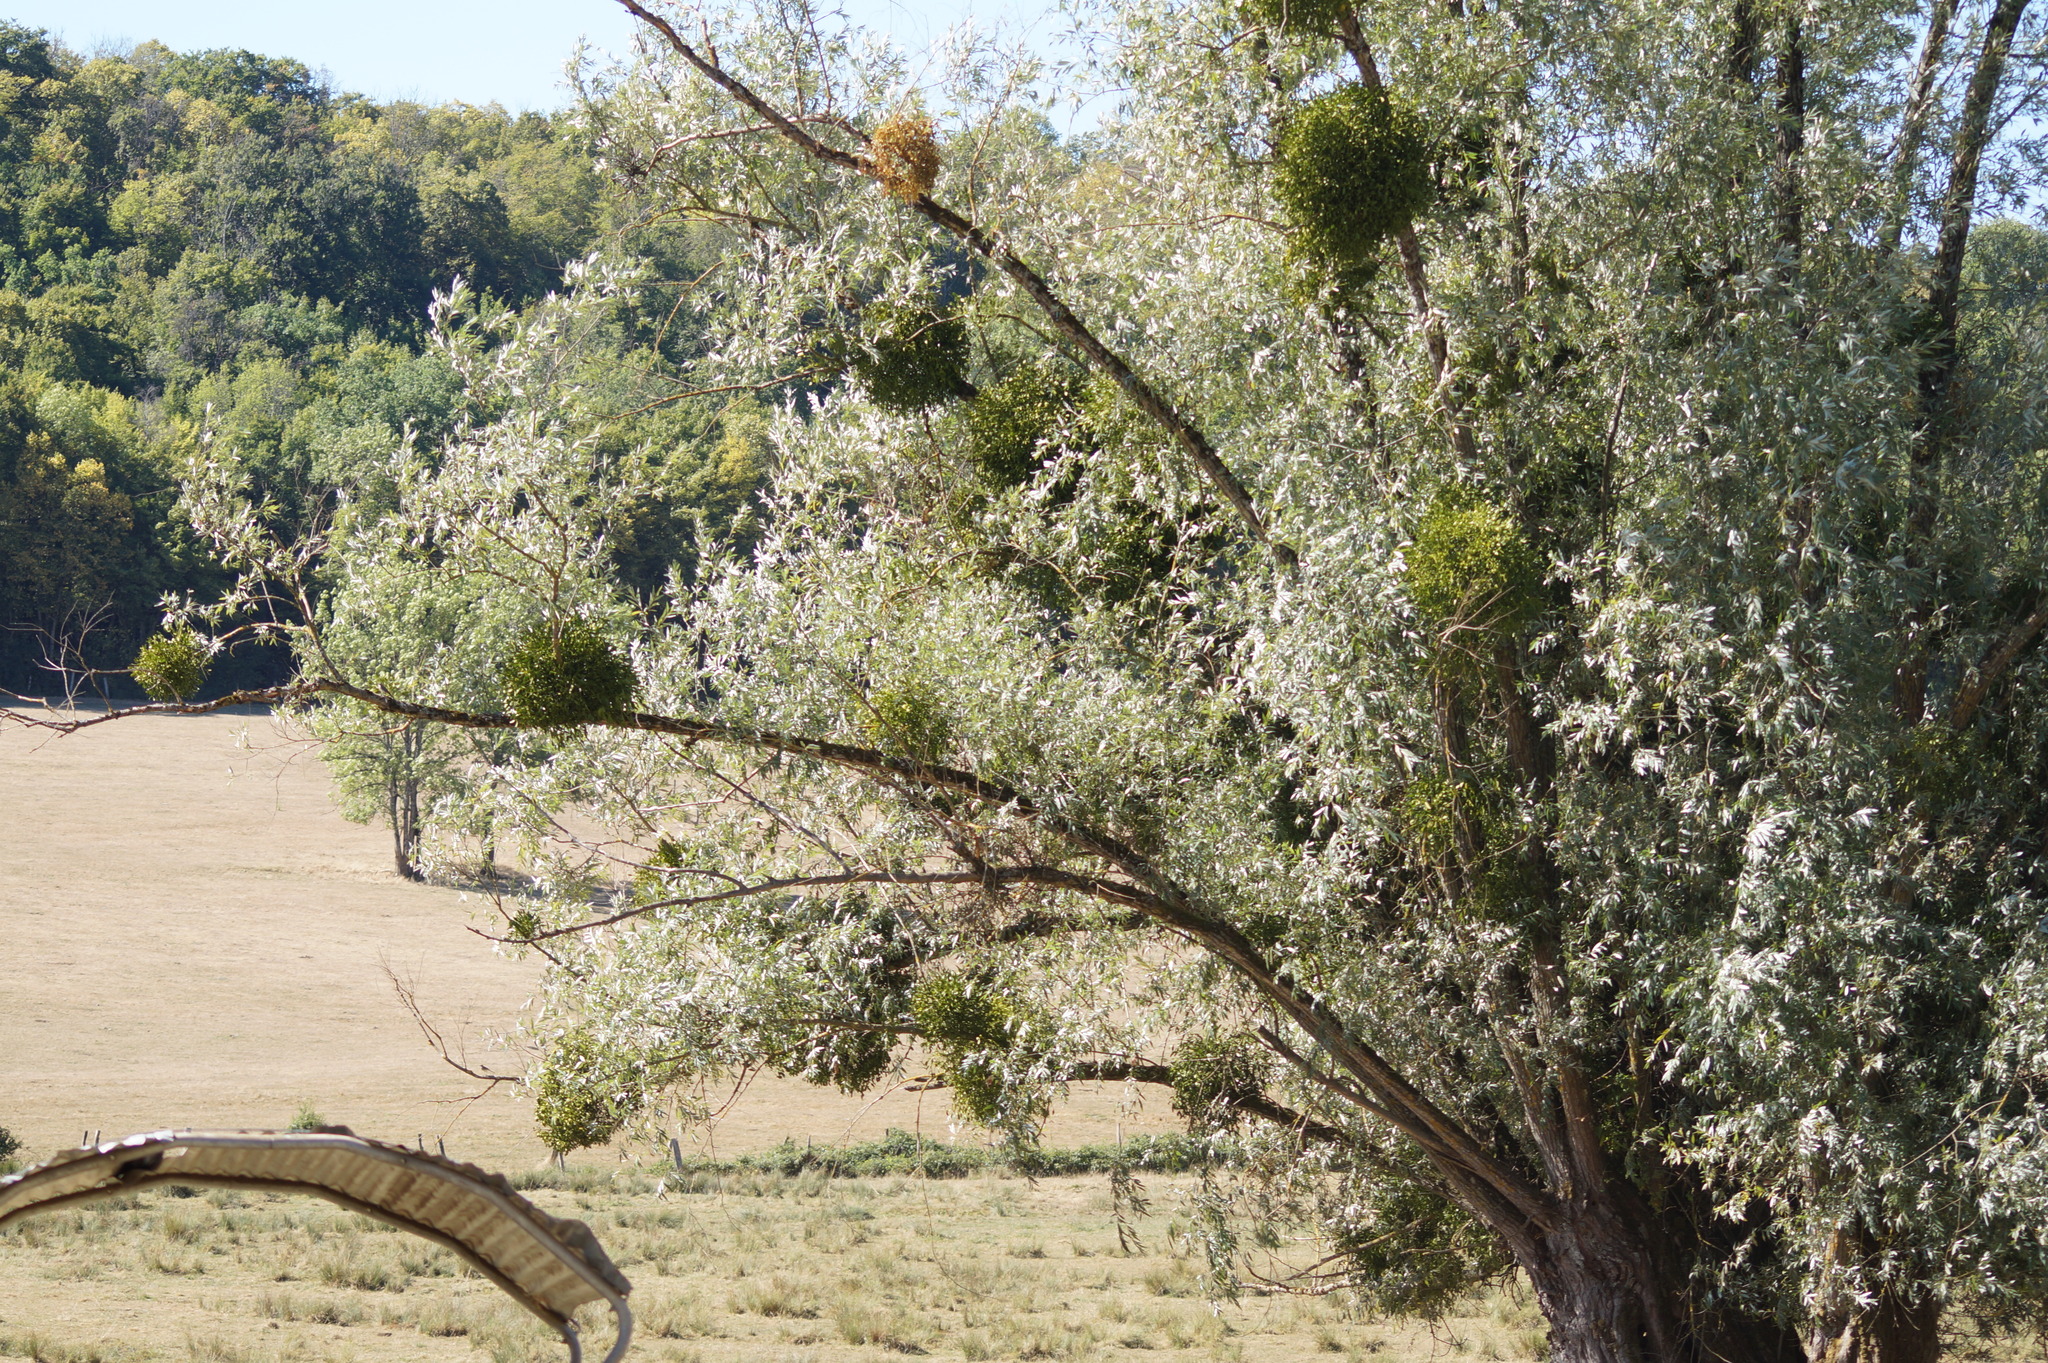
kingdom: Plantae
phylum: Tracheophyta
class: Magnoliopsida
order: Santalales
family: Viscaceae
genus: Viscum
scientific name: Viscum album
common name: Mistletoe
